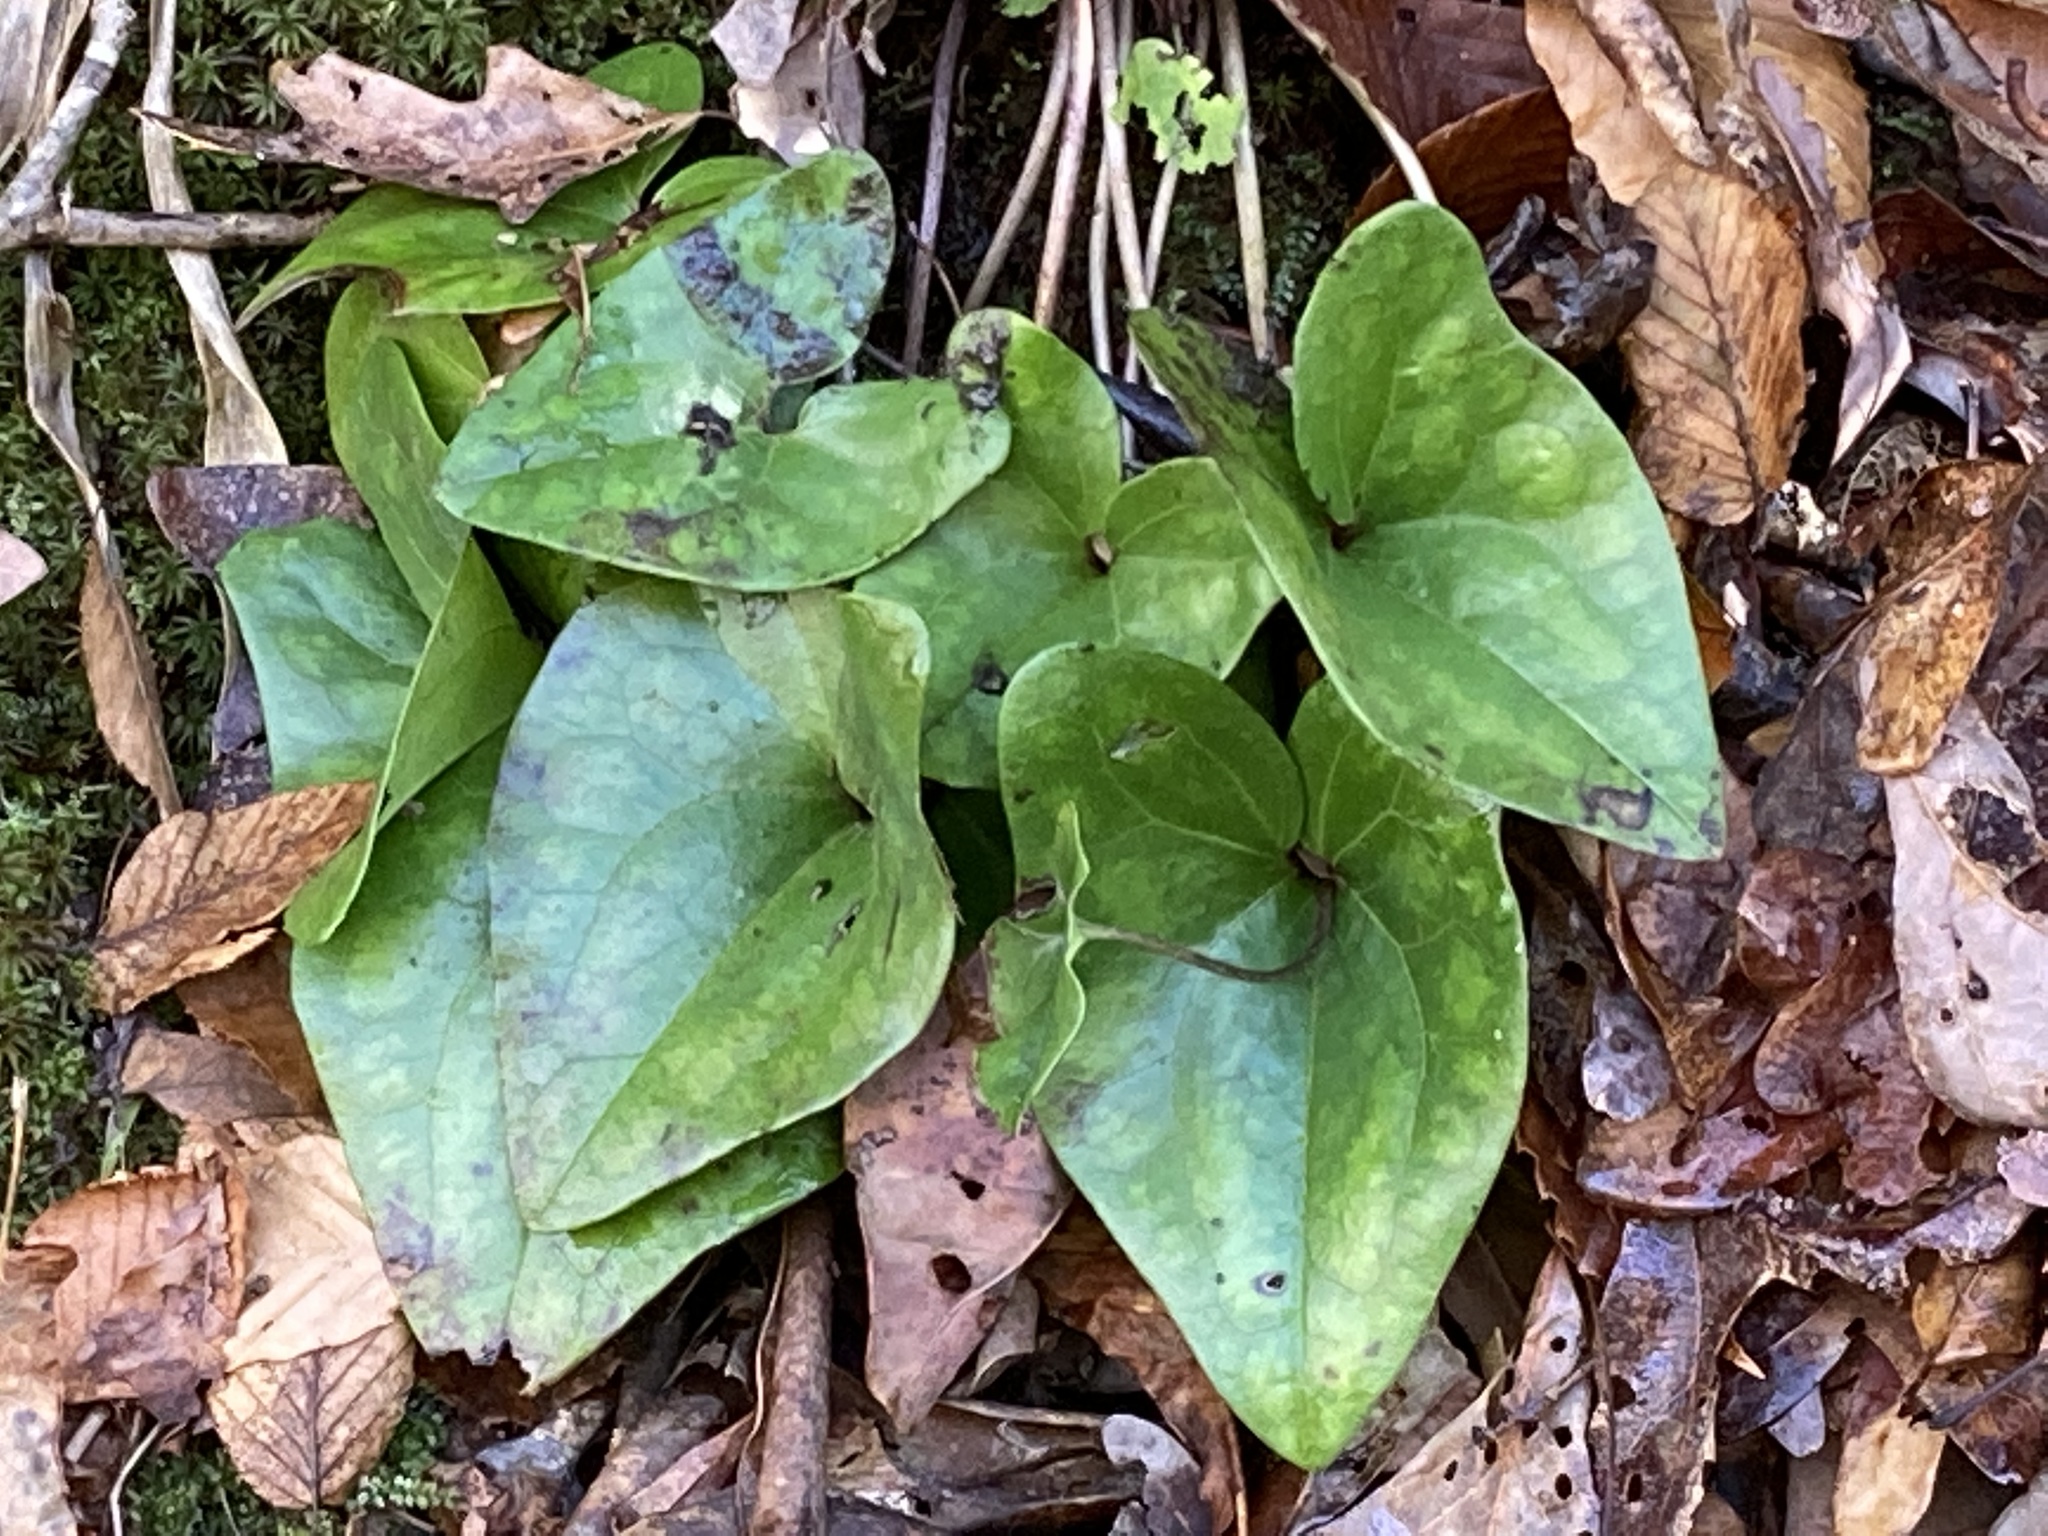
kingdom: Plantae
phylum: Tracheophyta
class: Magnoliopsida
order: Piperales
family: Aristolochiaceae
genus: Hexastylis
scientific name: Hexastylis arifolia
